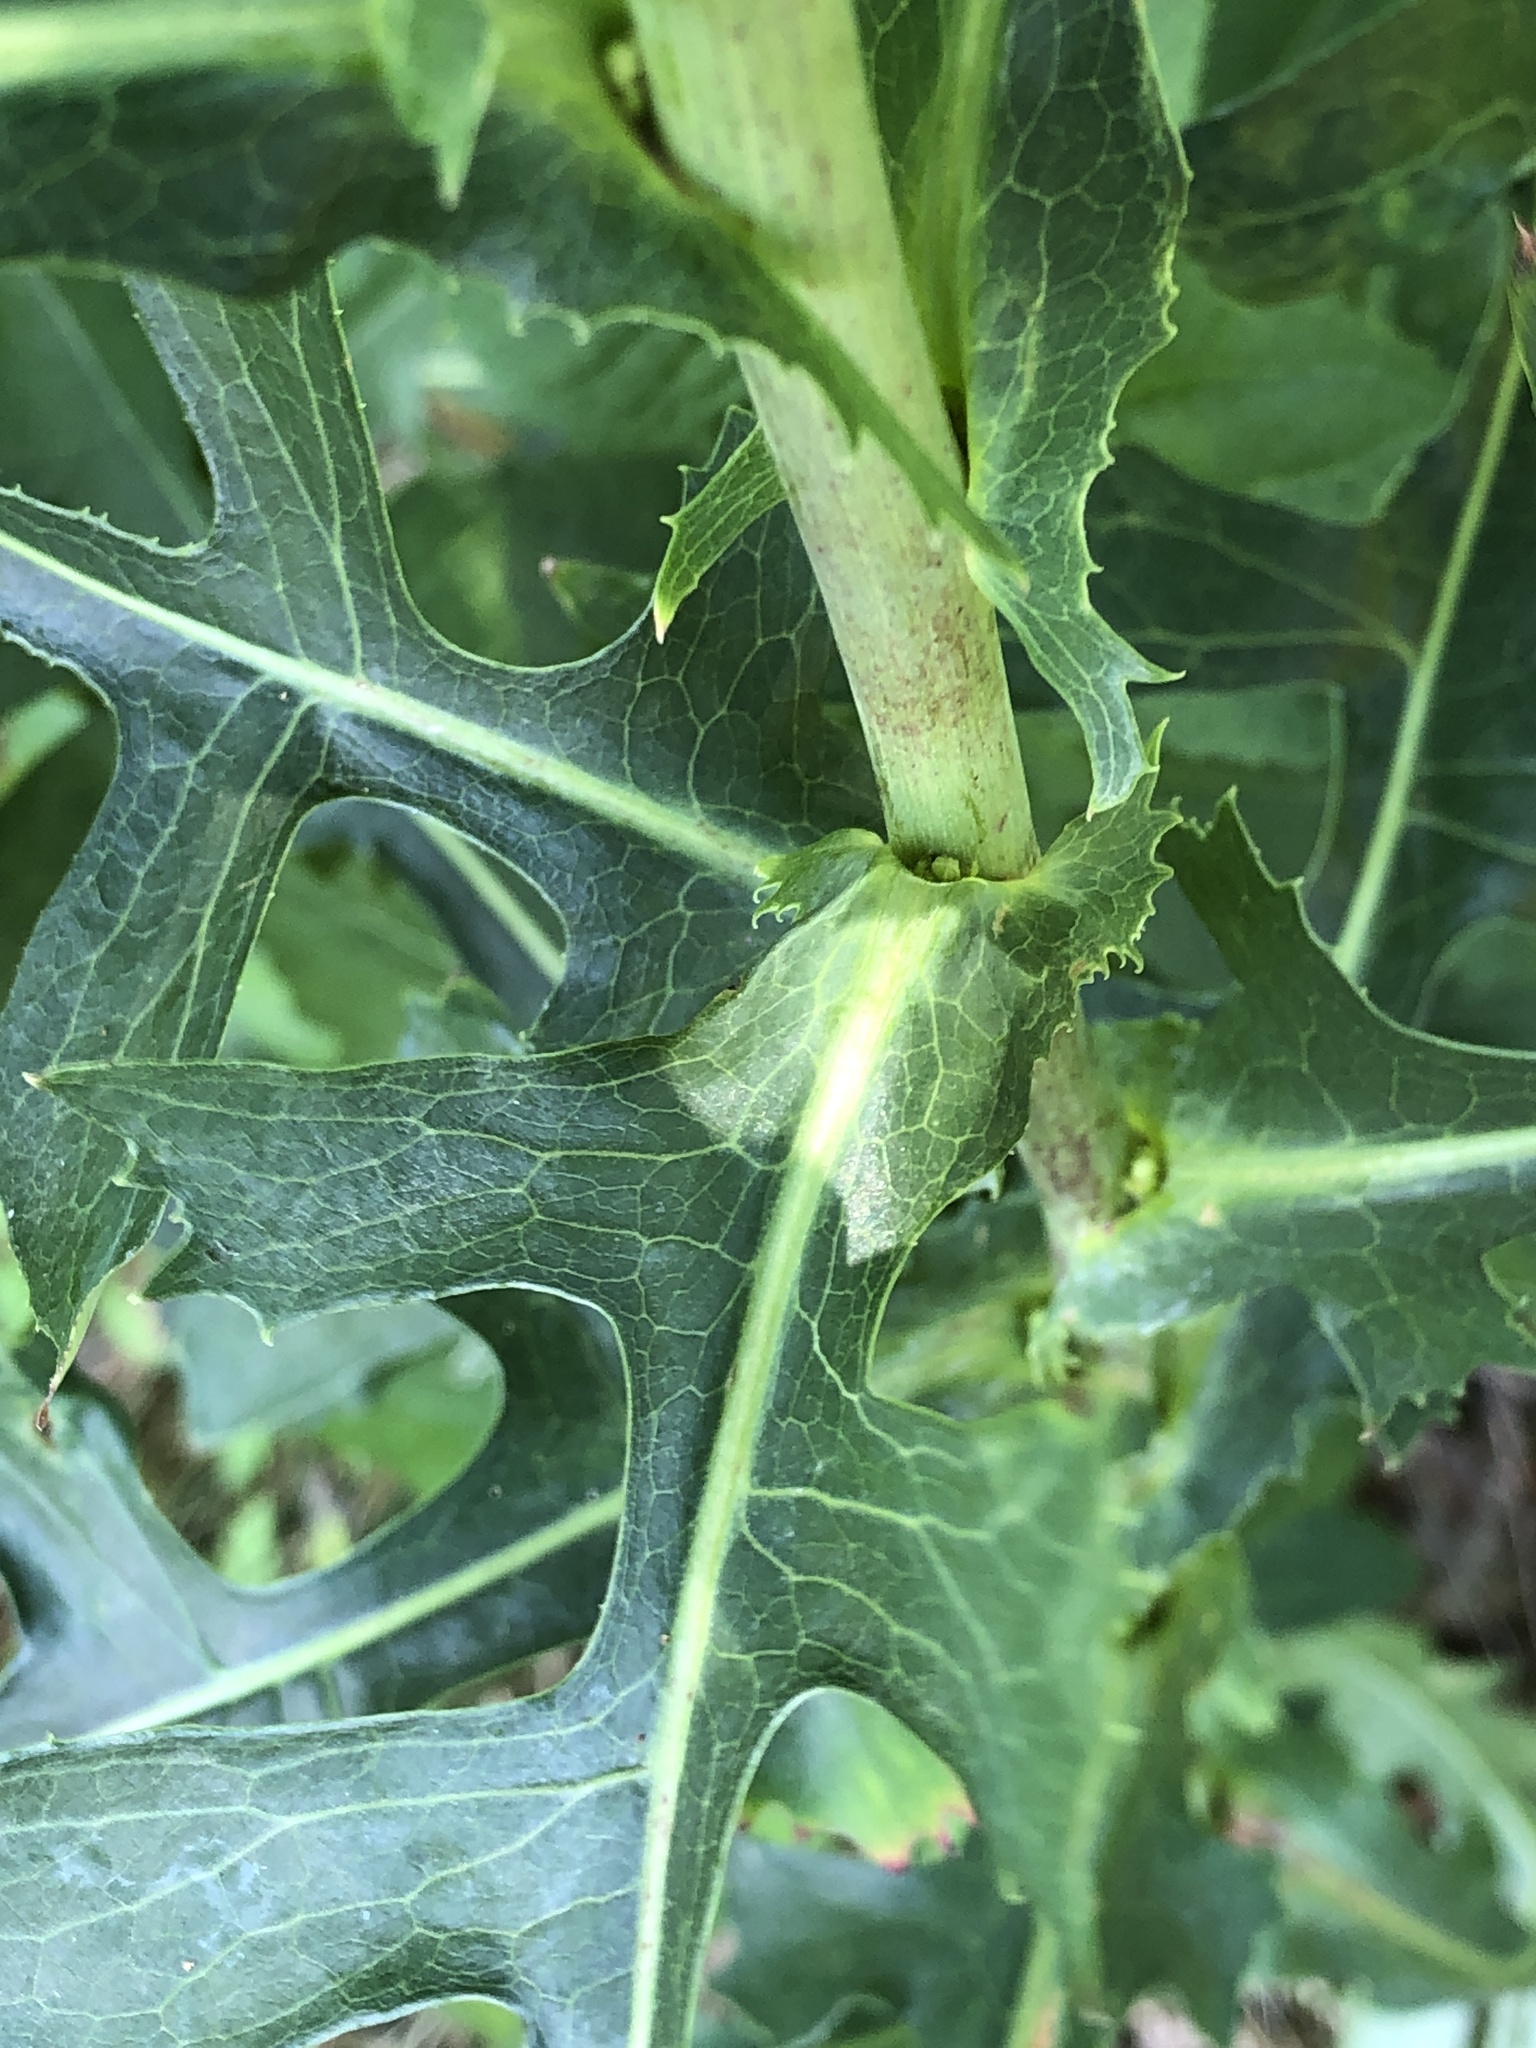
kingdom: Plantae
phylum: Tracheophyta
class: Magnoliopsida
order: Asterales
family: Asteraceae
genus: Lactuca
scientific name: Lactuca canadensis
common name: Canada lettuce
